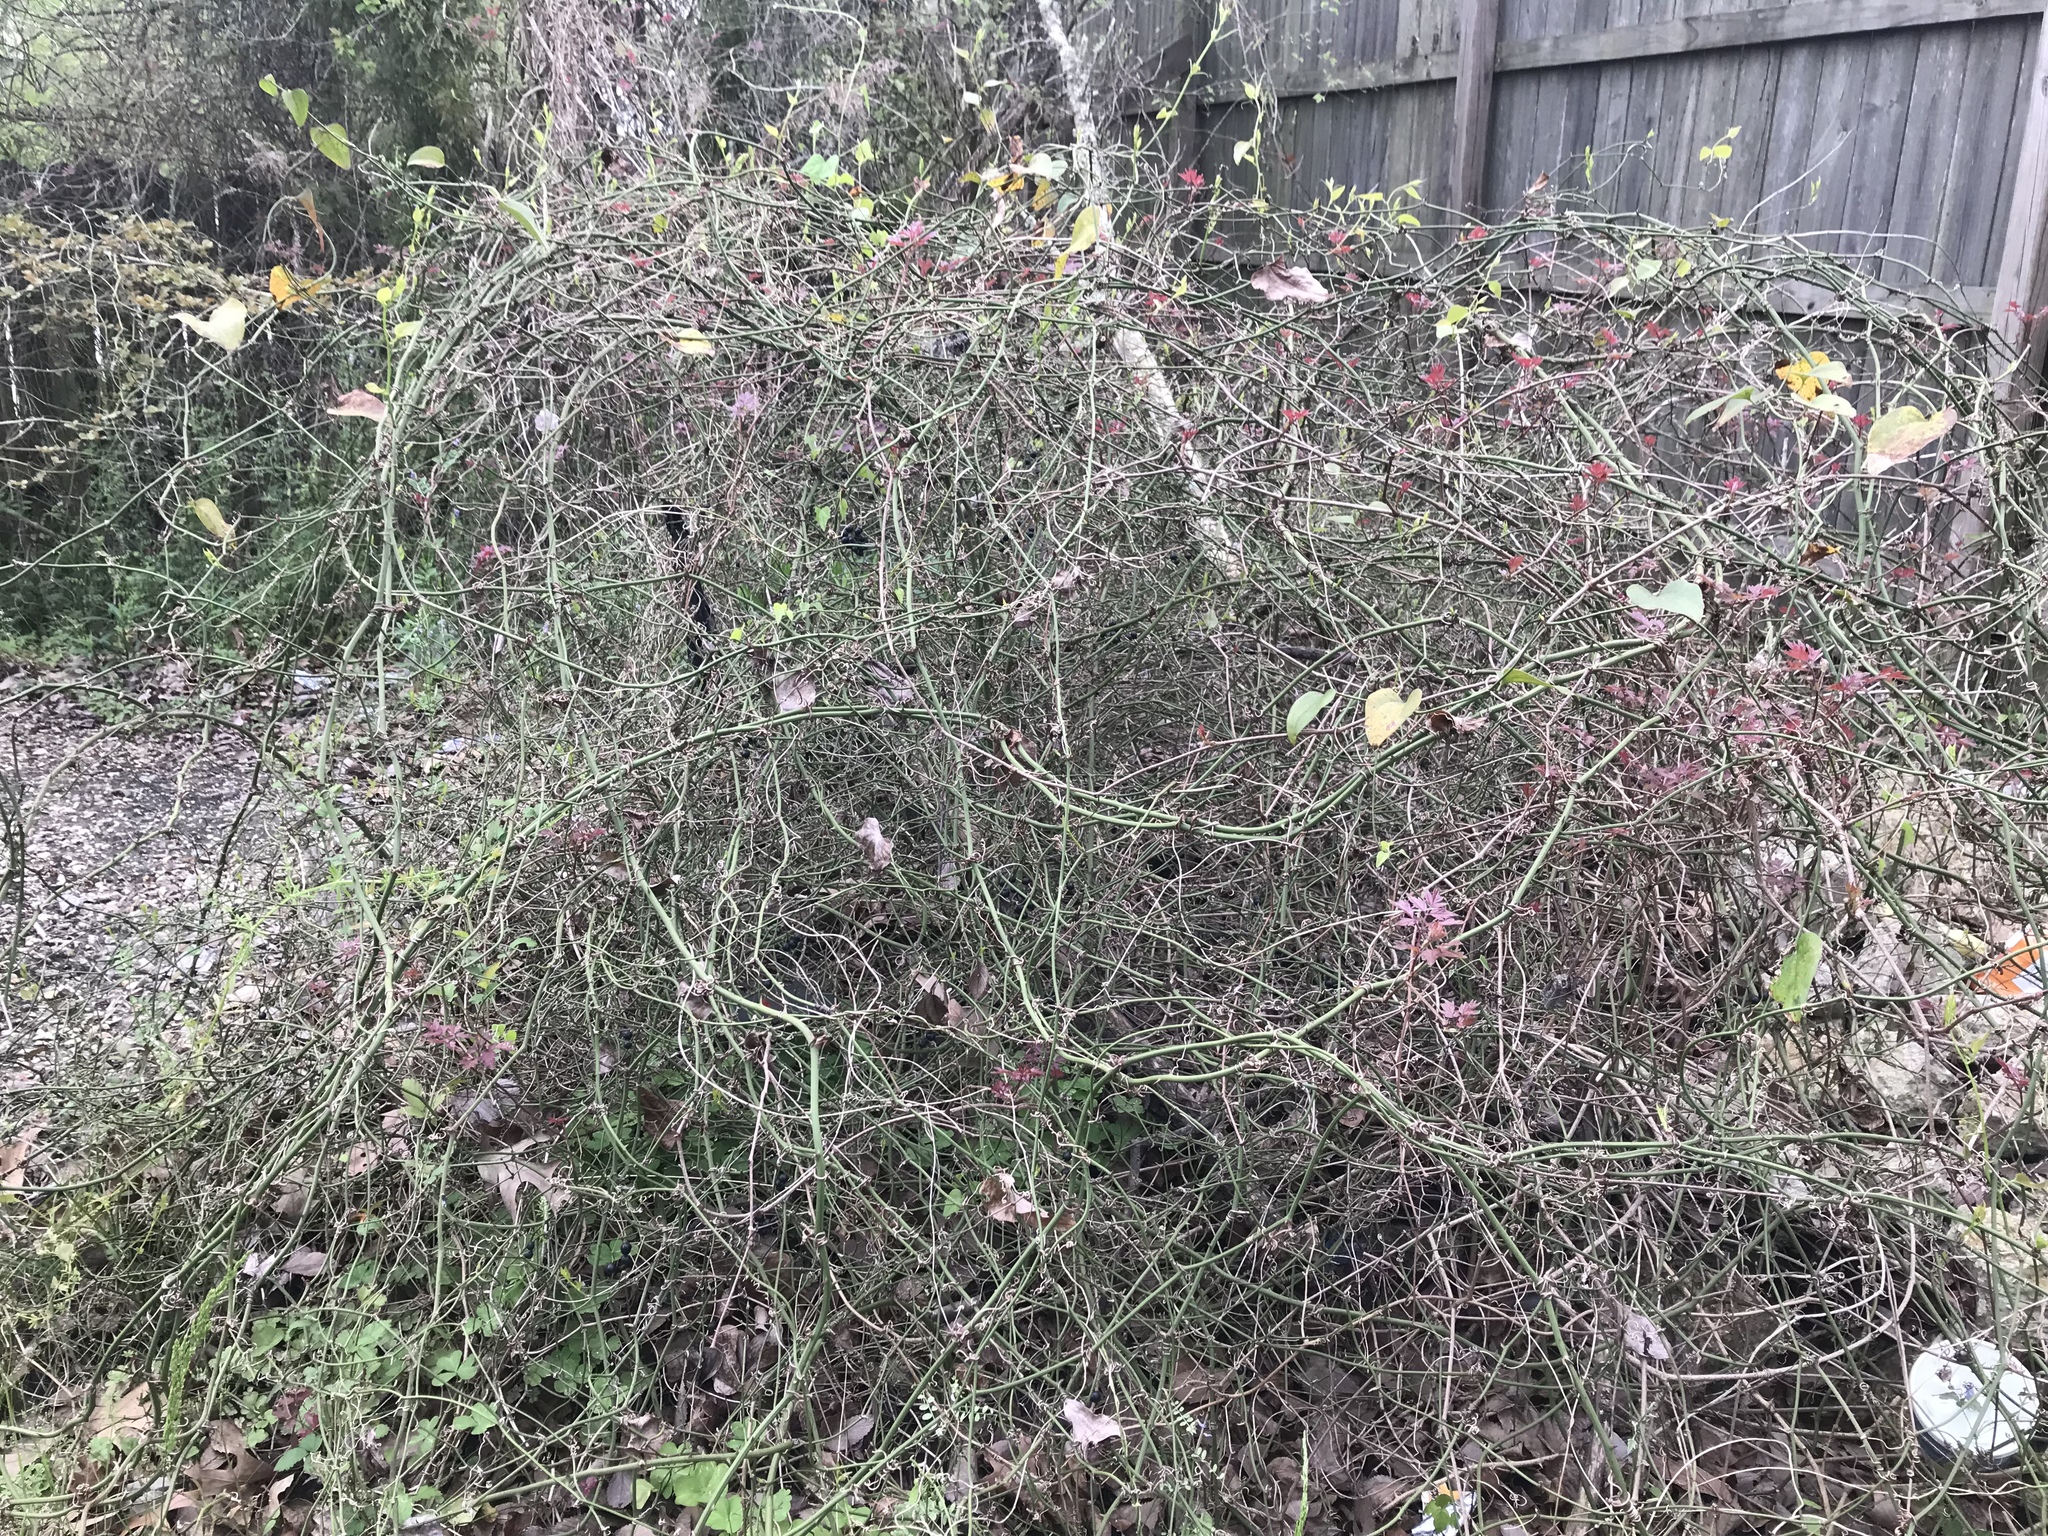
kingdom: Plantae
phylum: Tracheophyta
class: Liliopsida
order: Liliales
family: Smilacaceae
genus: Smilax
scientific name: Smilax rotundifolia
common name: Bullbriar
